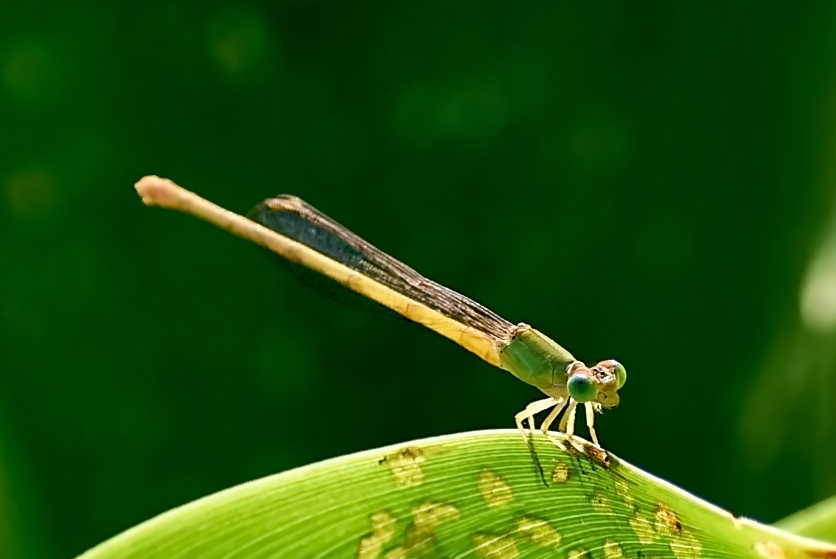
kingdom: Animalia
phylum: Arthropoda
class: Insecta
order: Odonata
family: Coenagrionidae
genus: Ceriagrion
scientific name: Ceriagrion coromandelianum
